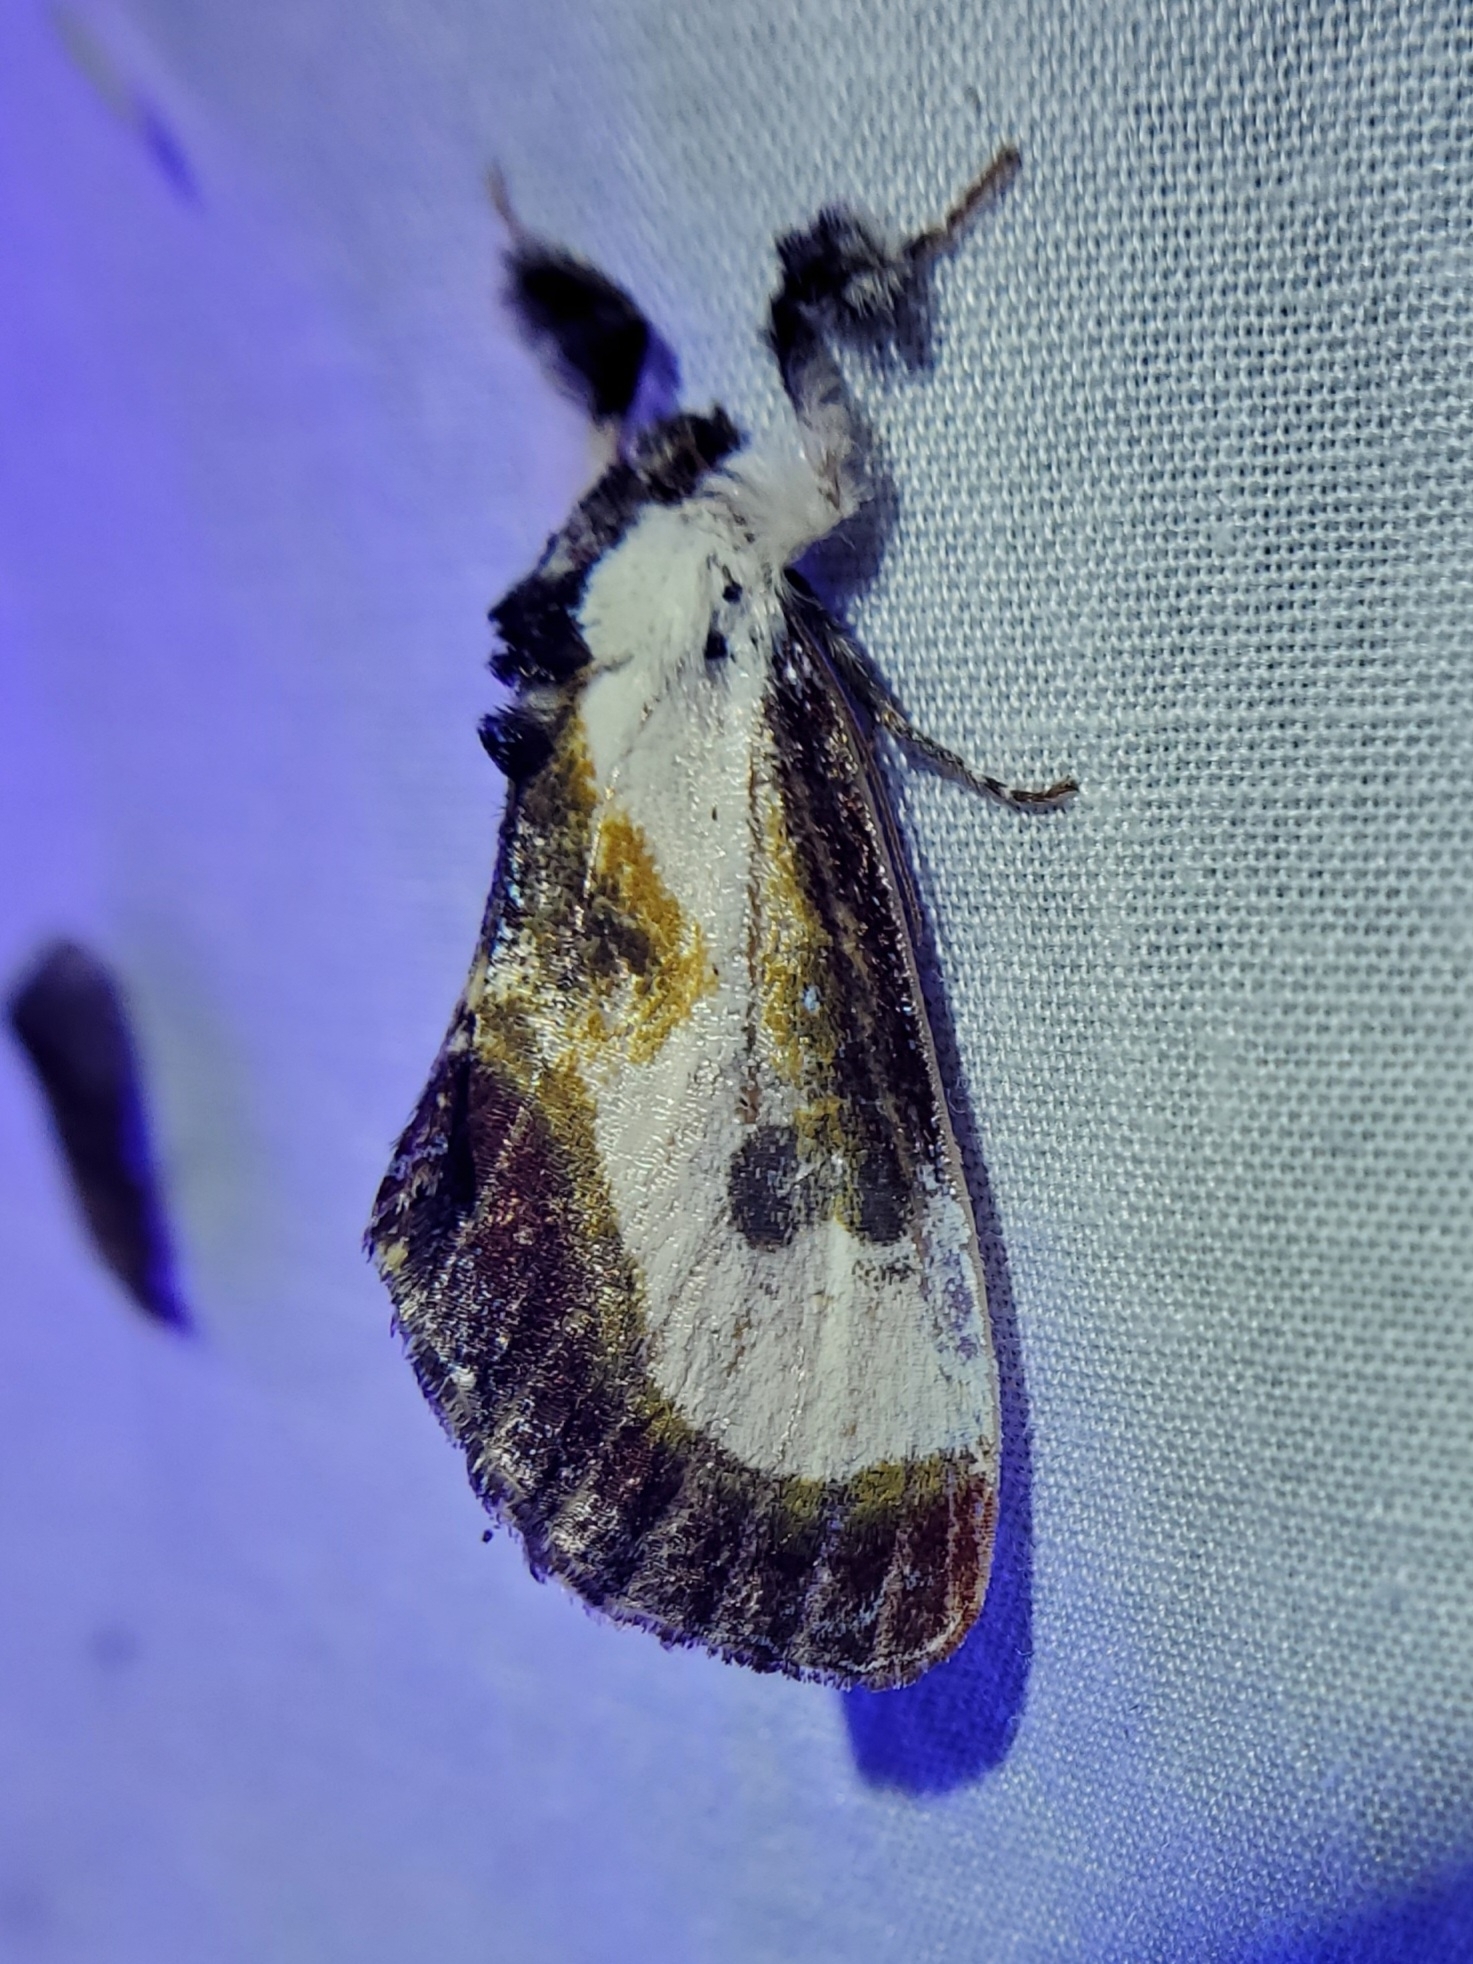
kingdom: Animalia
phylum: Arthropoda
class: Insecta
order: Lepidoptera
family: Noctuidae
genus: Eudryas
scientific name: Eudryas grata
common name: Beautiful wood-nymph
